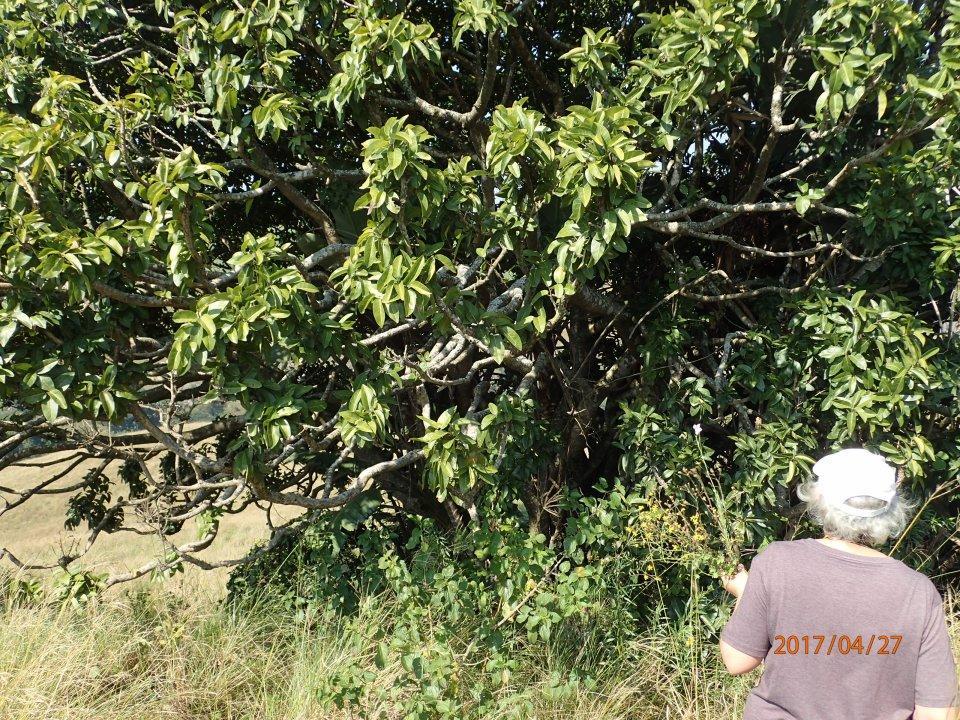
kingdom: Plantae
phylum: Tracheophyta
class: Magnoliopsida
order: Rosales
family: Moraceae
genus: Ficus
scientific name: Ficus ingens
